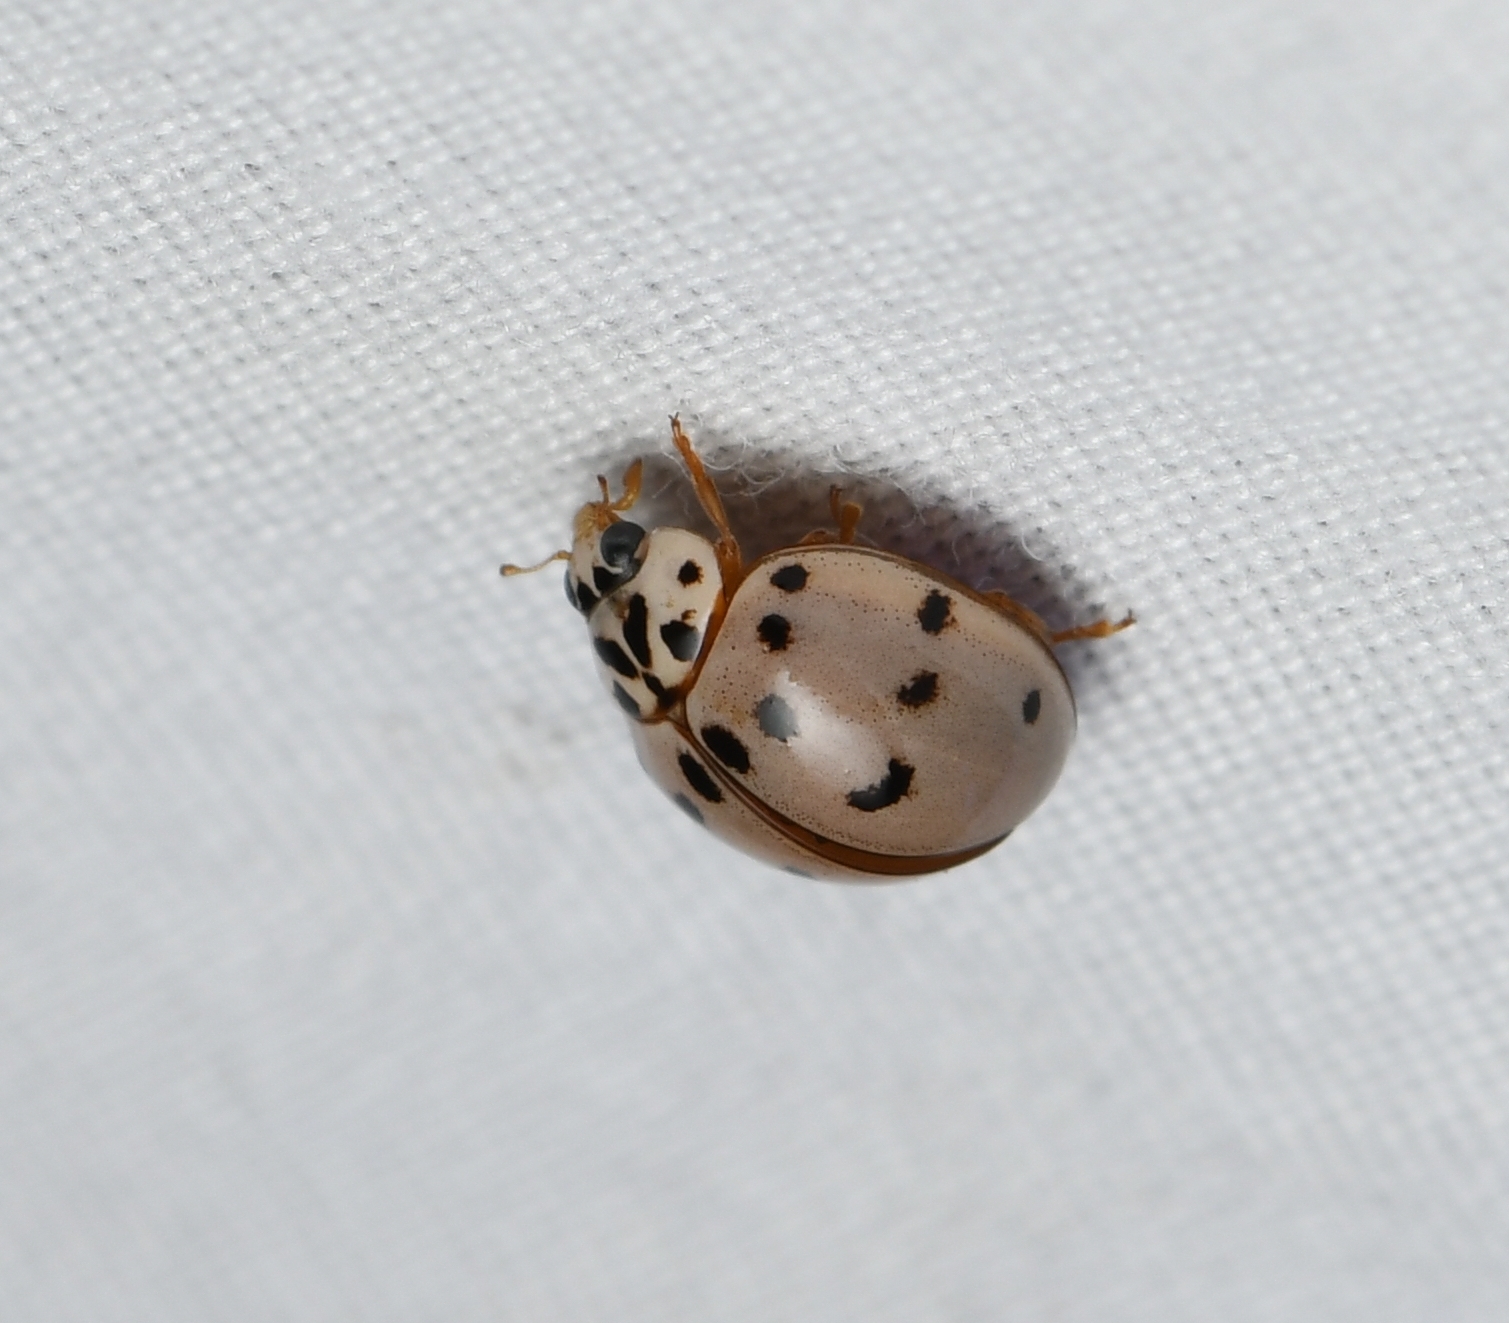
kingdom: Animalia
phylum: Arthropoda
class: Insecta
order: Coleoptera
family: Coccinellidae
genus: Olla
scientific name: Olla v-nigrum
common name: Ashy gray lady beetle
